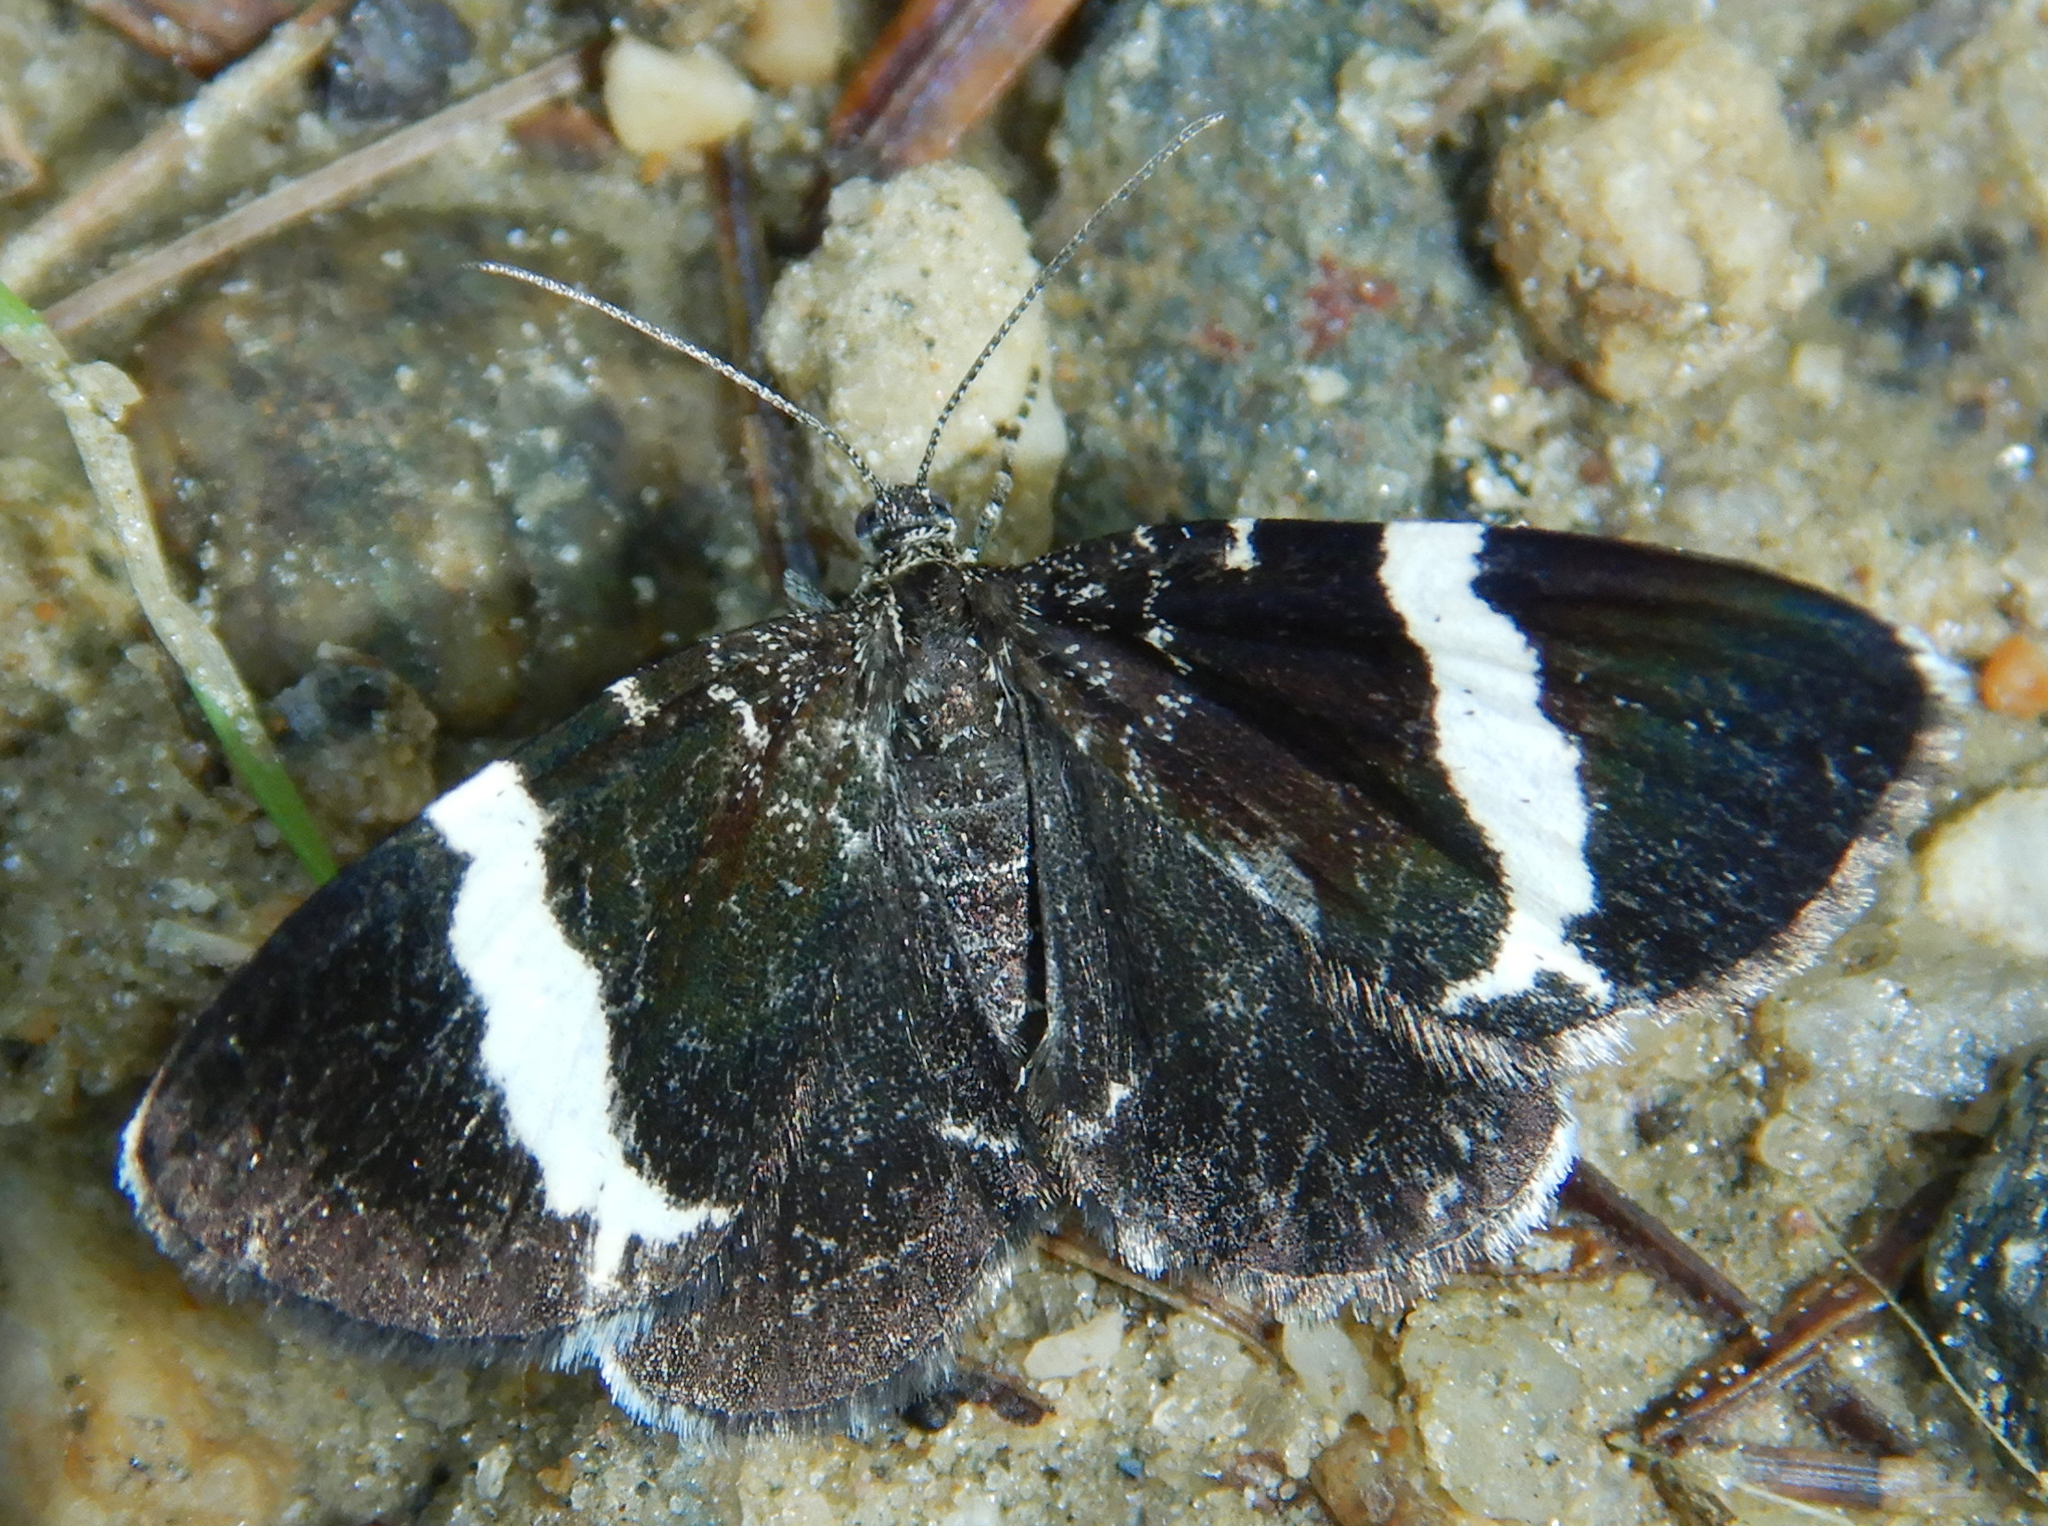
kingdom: Animalia
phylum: Arthropoda
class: Insecta
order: Lepidoptera
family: Geometridae
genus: Trichodezia
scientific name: Trichodezia albovittata
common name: White striped black
